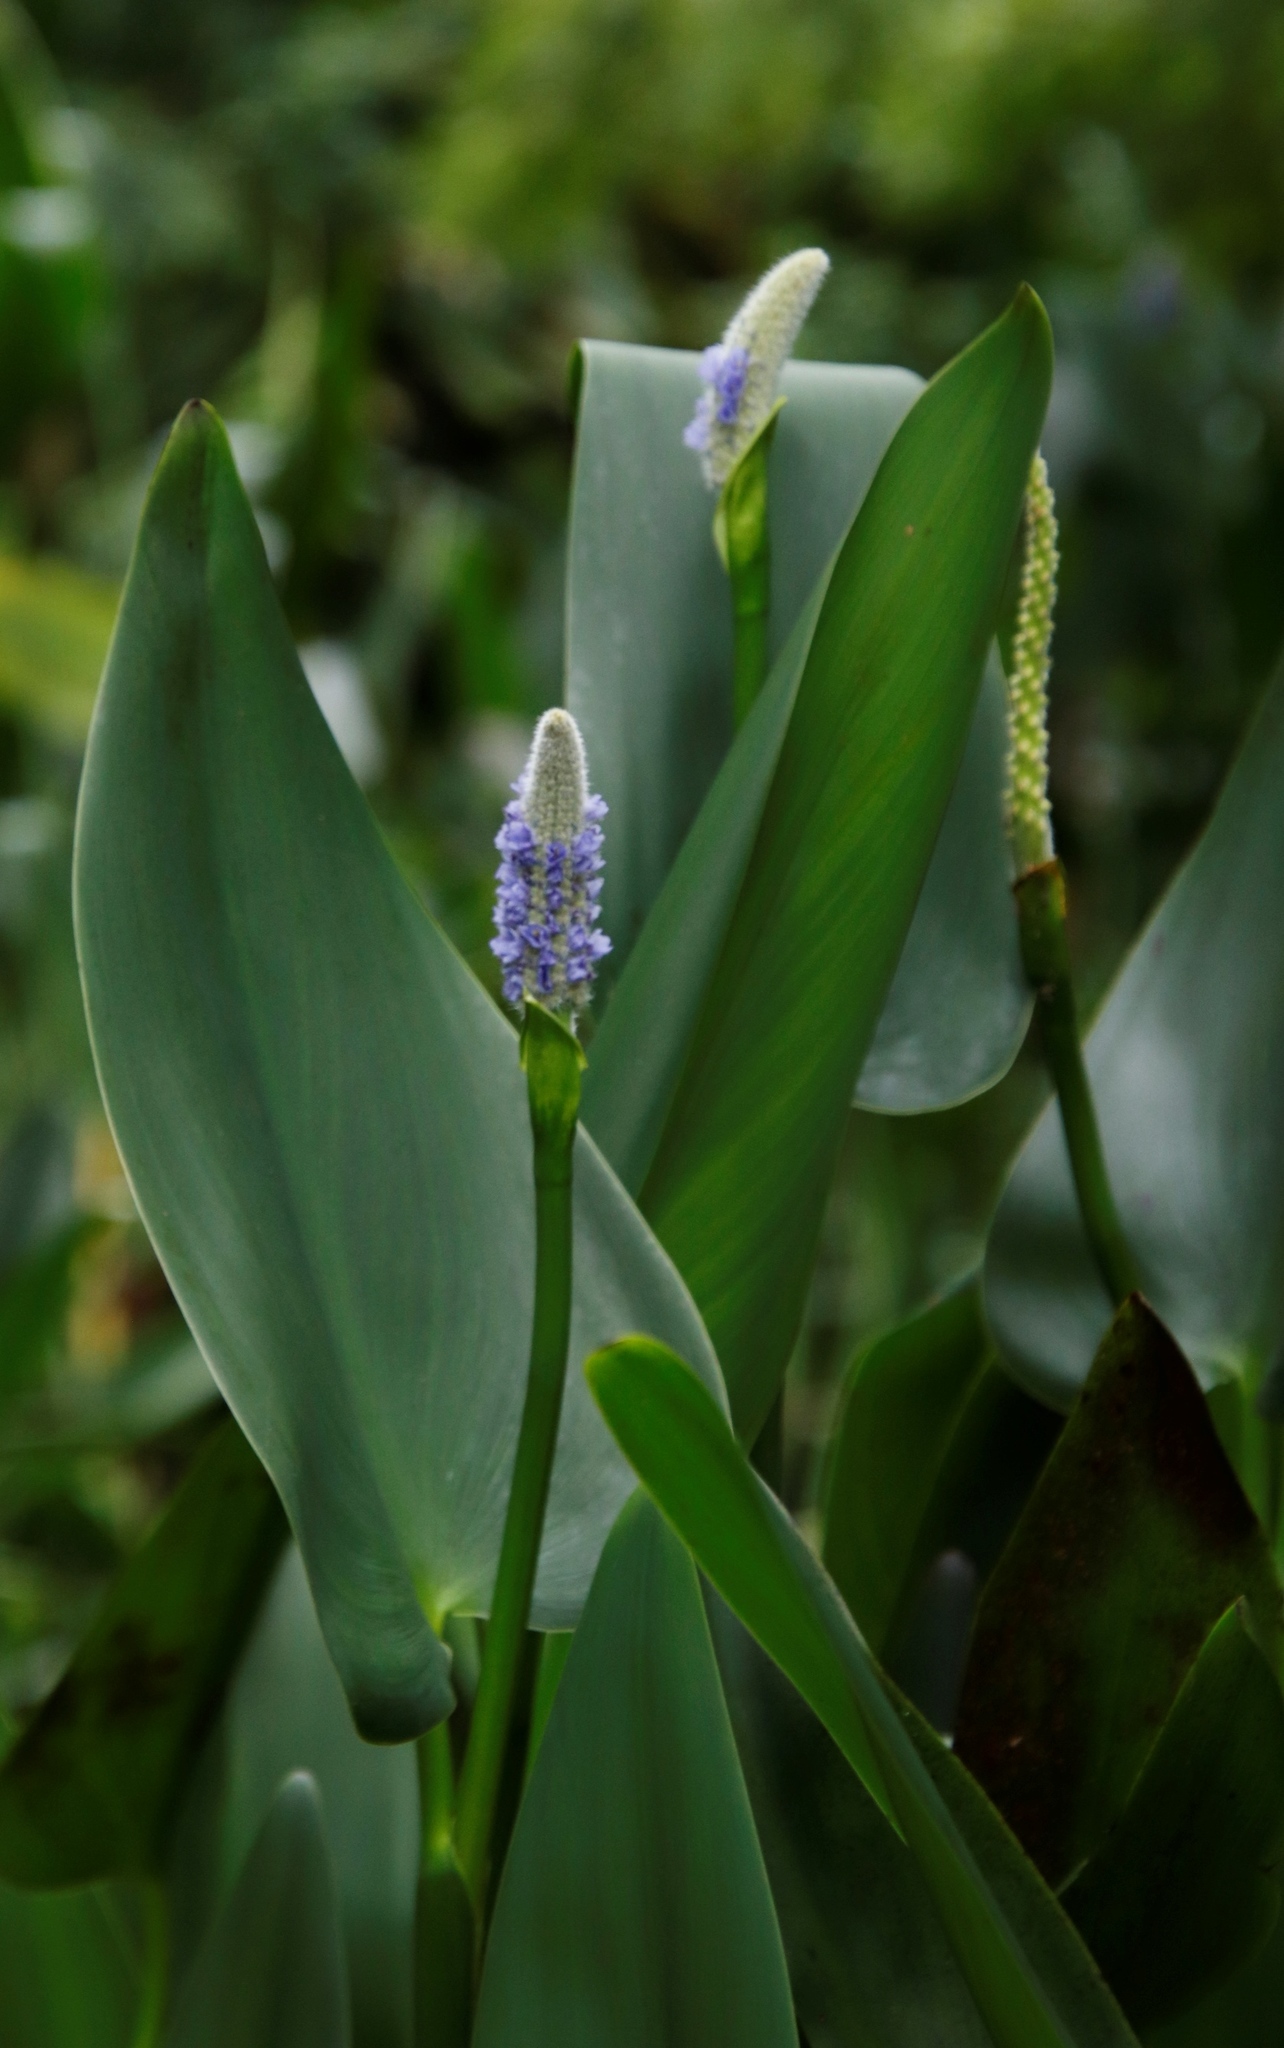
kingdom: Plantae
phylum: Tracheophyta
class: Liliopsida
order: Commelinales
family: Pontederiaceae
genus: Pontederia
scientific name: Pontederia cordata
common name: Pickerelweed
